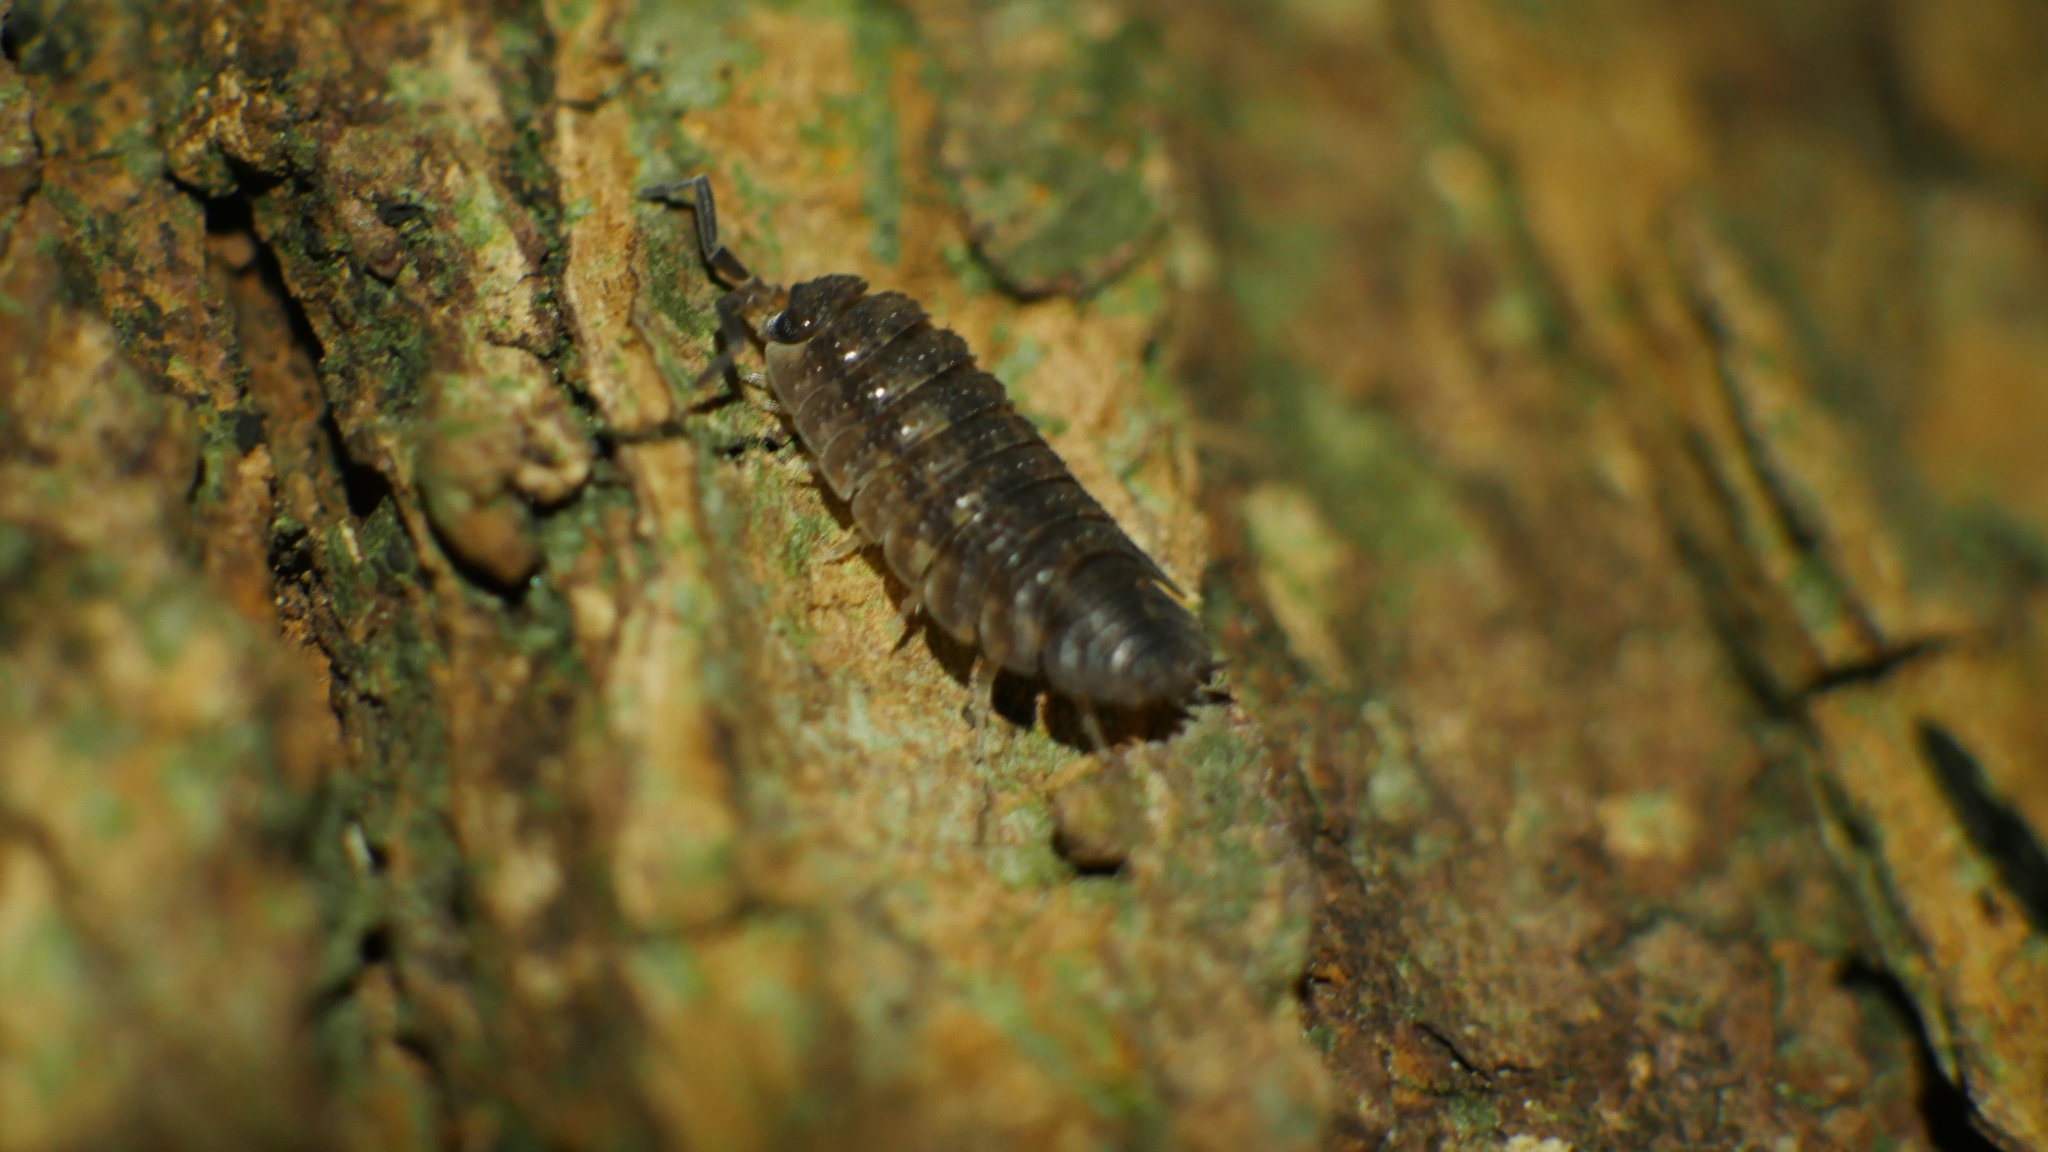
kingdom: Animalia
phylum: Arthropoda
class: Malacostraca
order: Isopoda
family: Porcellionidae
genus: Porcellio
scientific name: Porcellio scaber
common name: Common rough woodlouse
